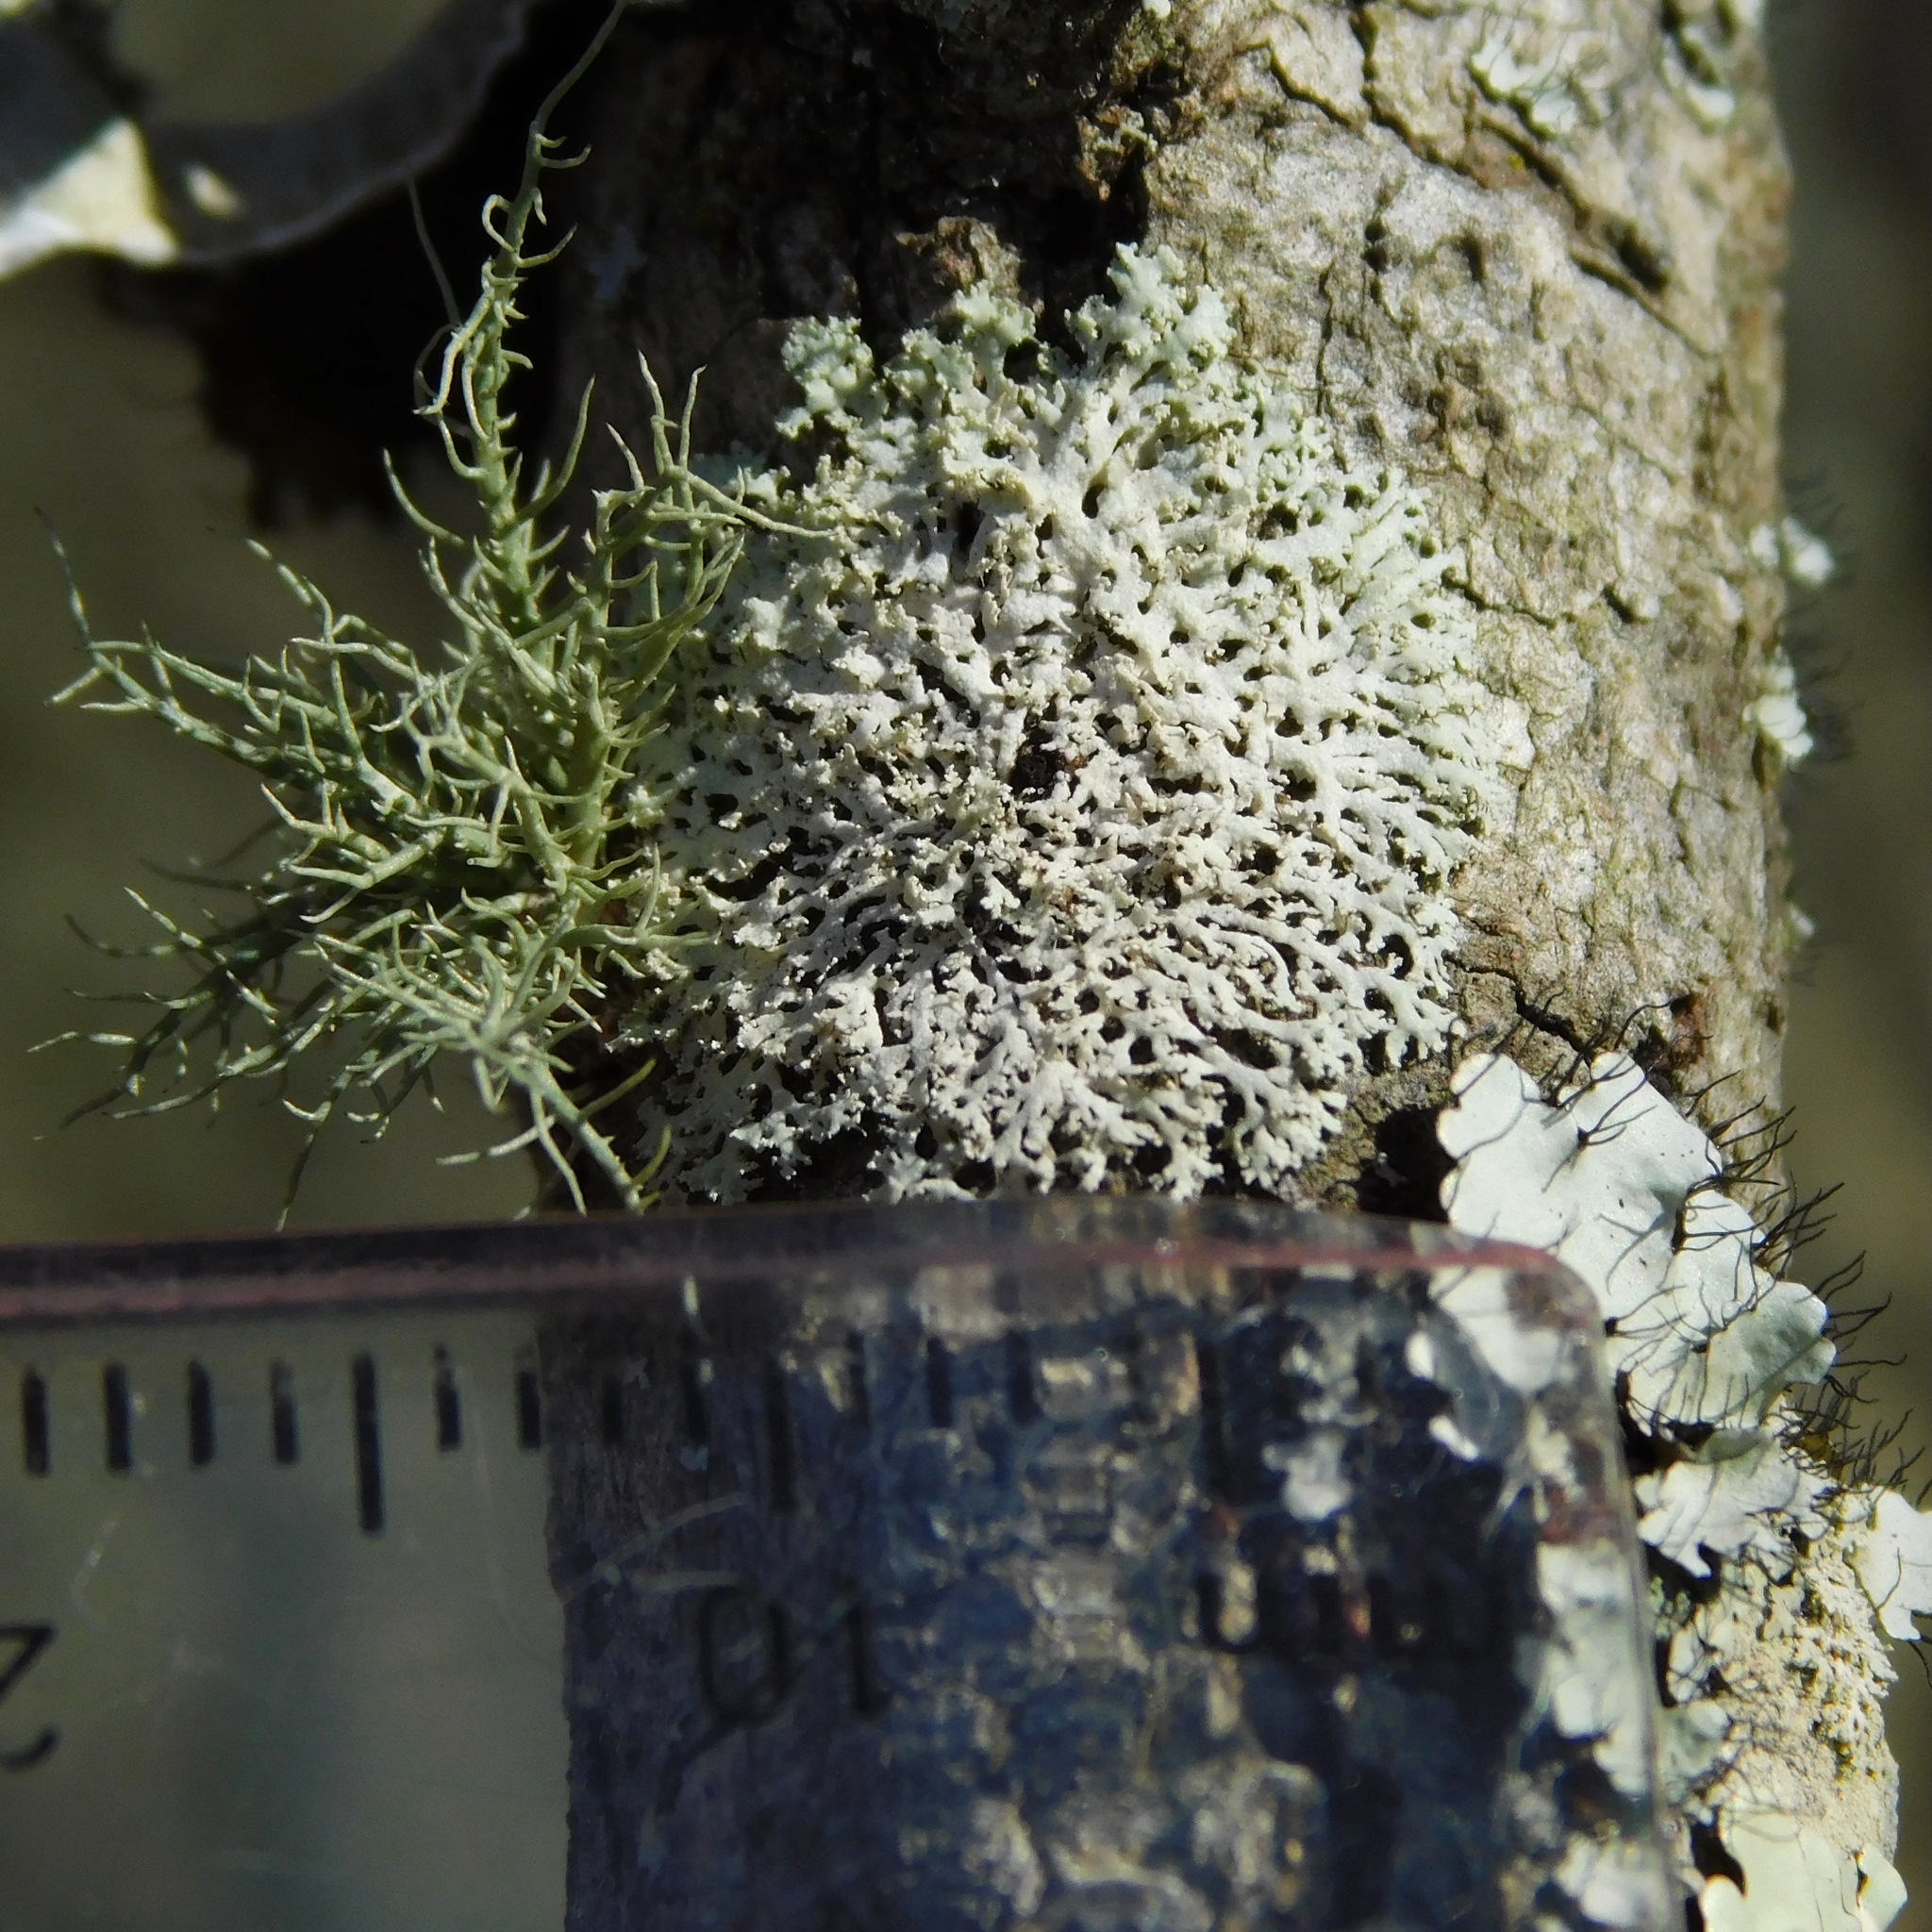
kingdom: Fungi
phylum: Ascomycota
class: Lecanoromycetes
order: Caliciales
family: Physciaceae
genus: Physcia
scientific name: Physcia millegrana
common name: Rosette lichen
